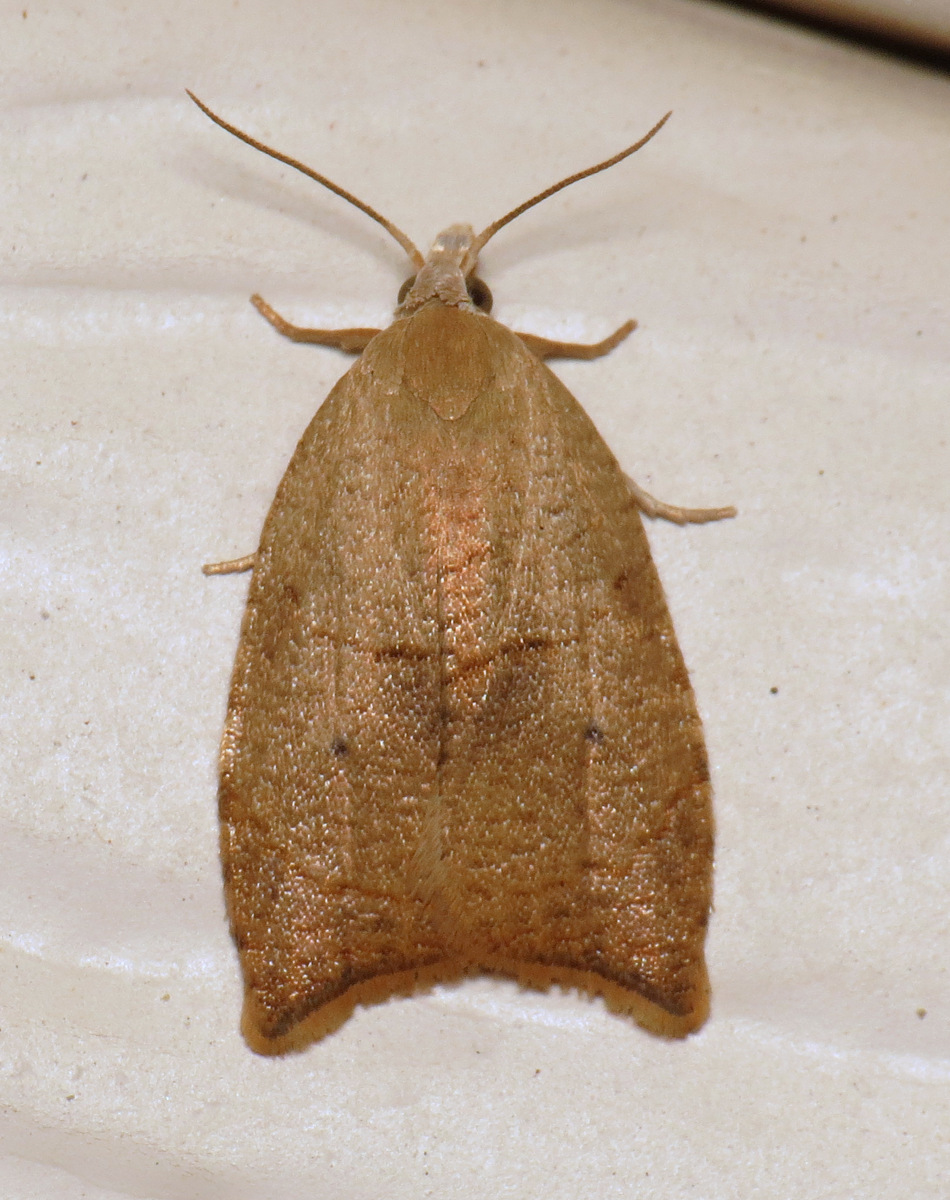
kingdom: Animalia
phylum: Arthropoda
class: Insecta
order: Lepidoptera
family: Tortricidae
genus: Coelostathma
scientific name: Coelostathma discopunctana
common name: Batman moth
